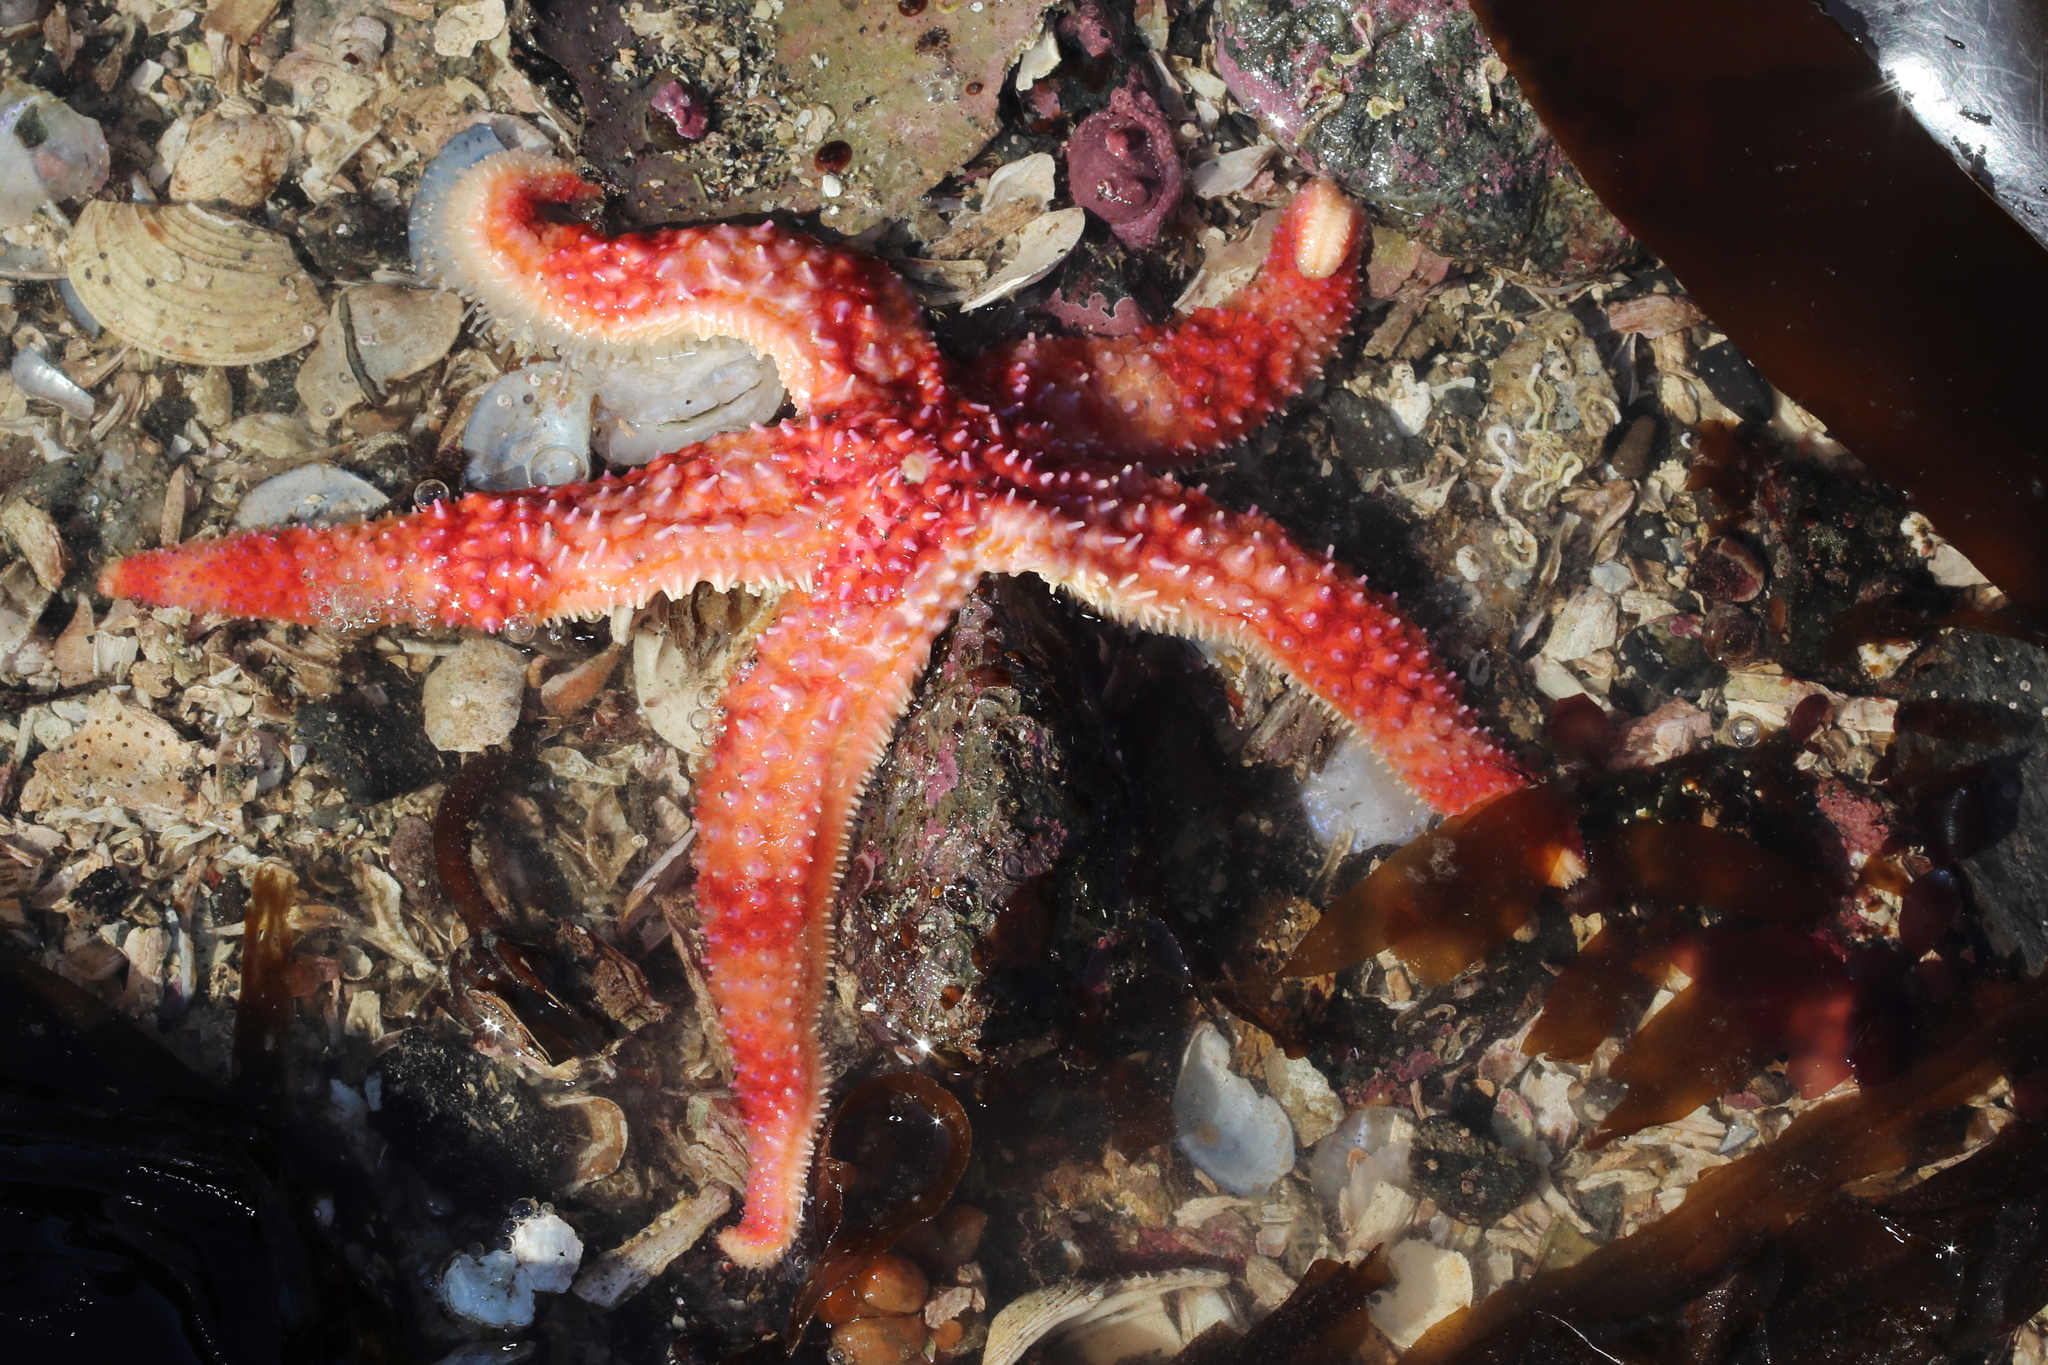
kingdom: Animalia
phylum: Echinodermata
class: Asteroidea
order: Forcipulatida
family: Asteriidae
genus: Orthasterias
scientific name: Orthasterias koehleri
